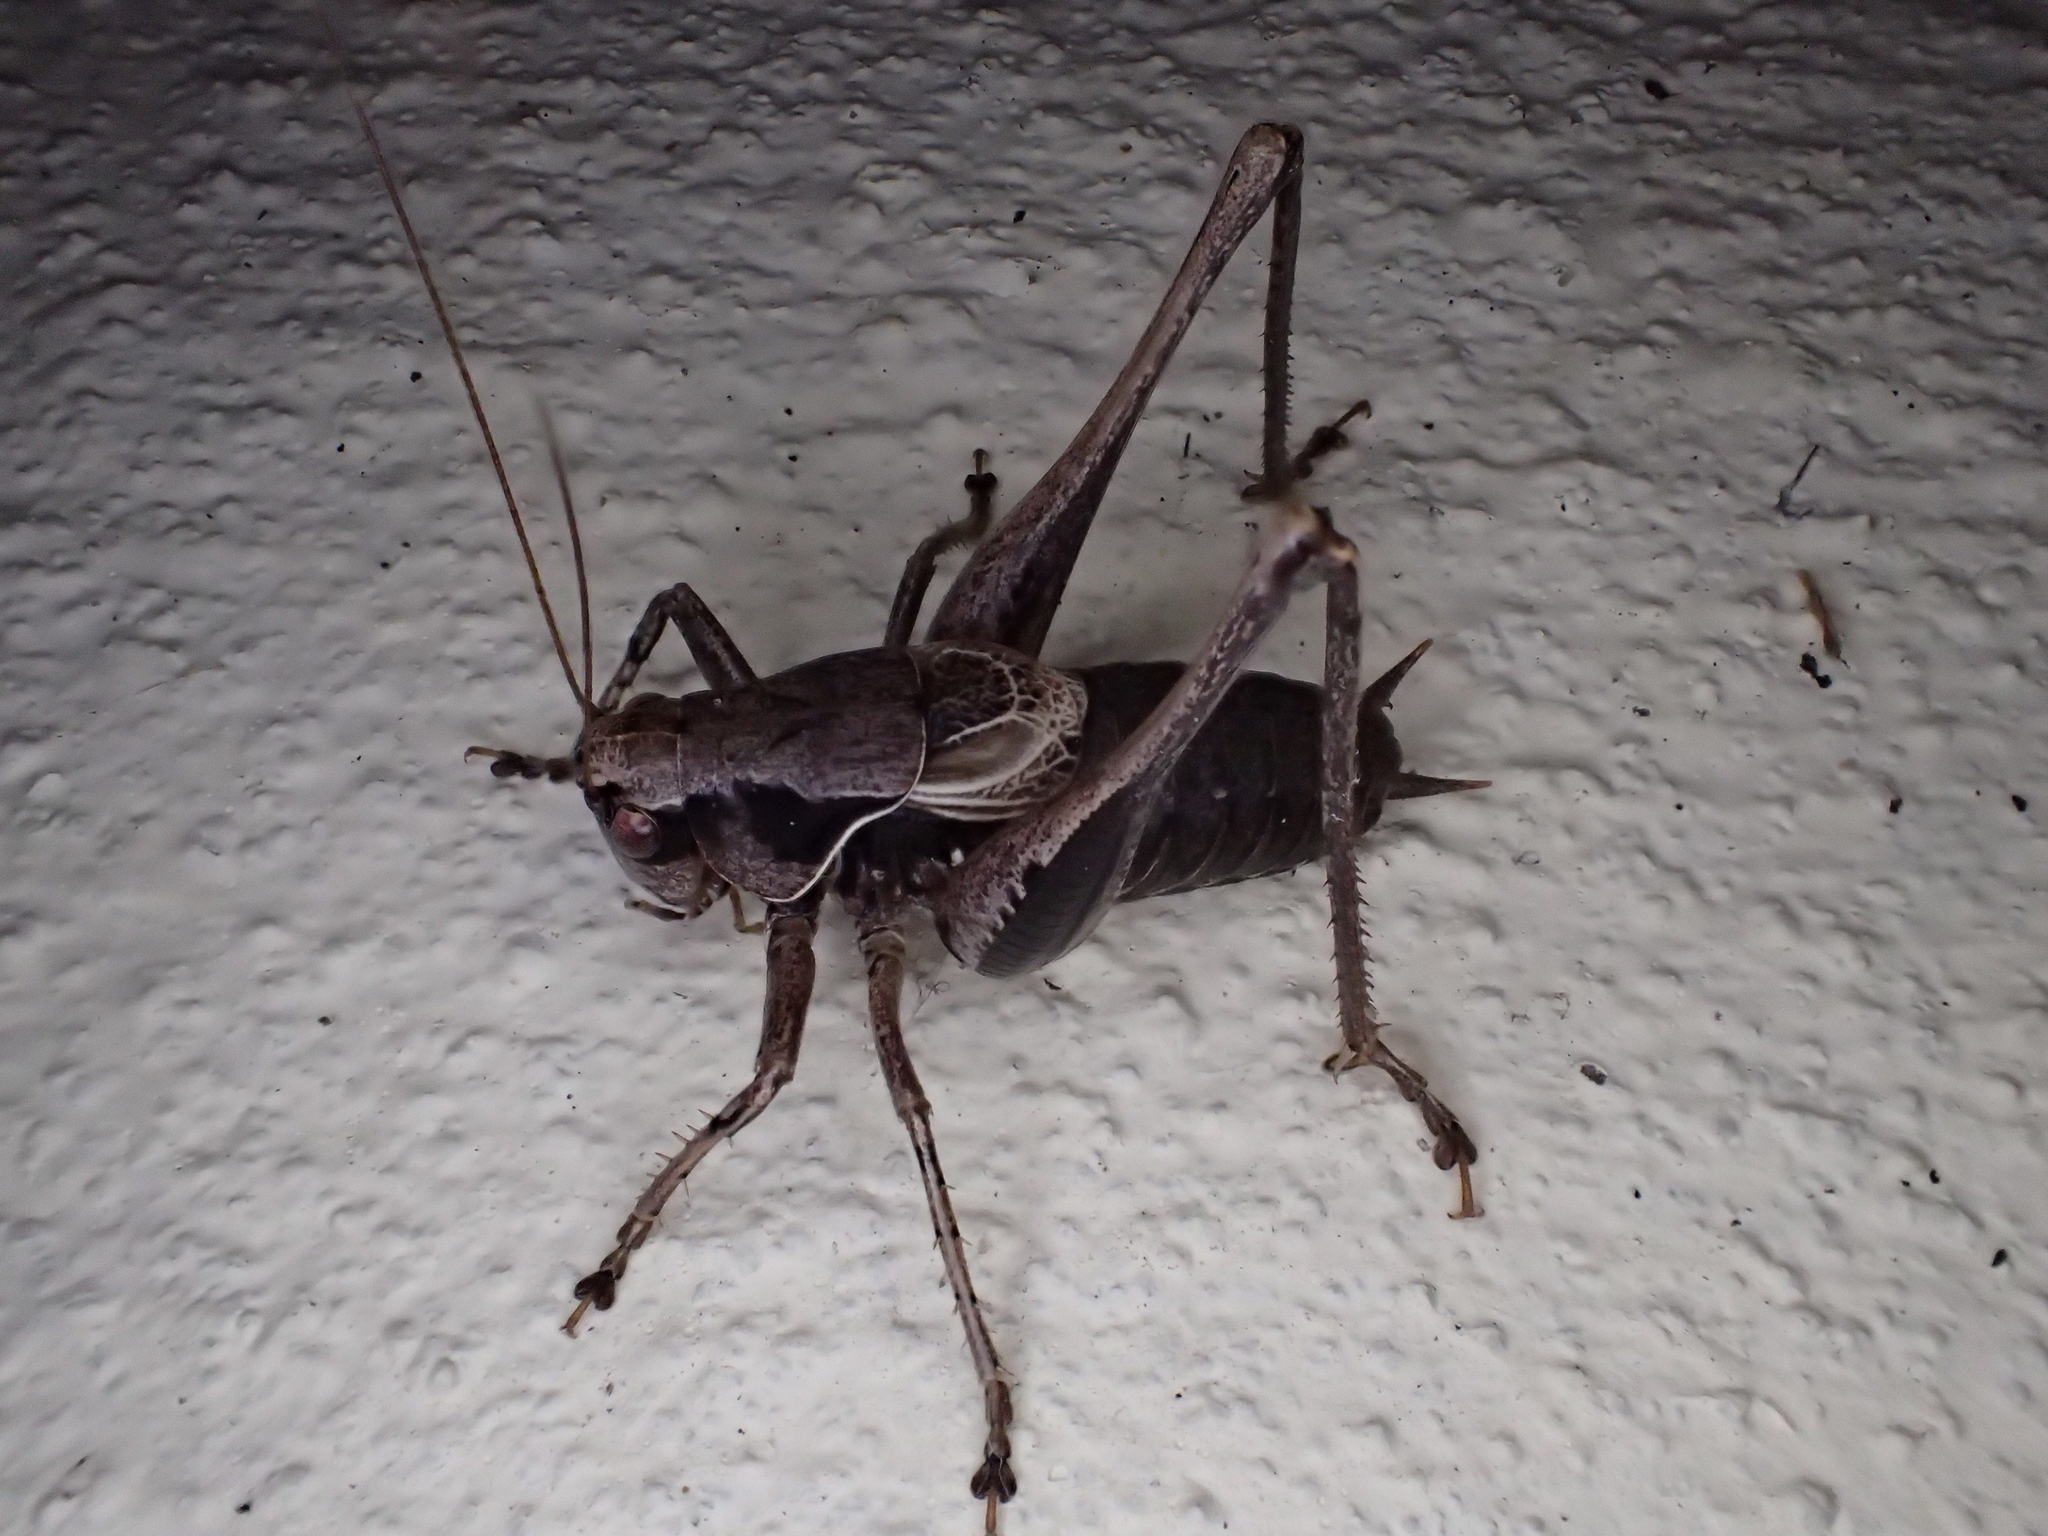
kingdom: Animalia
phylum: Arthropoda
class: Insecta
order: Orthoptera
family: Tettigoniidae
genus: Pholidoptera
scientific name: Pholidoptera griseoaptera
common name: Dark bush-cricket
